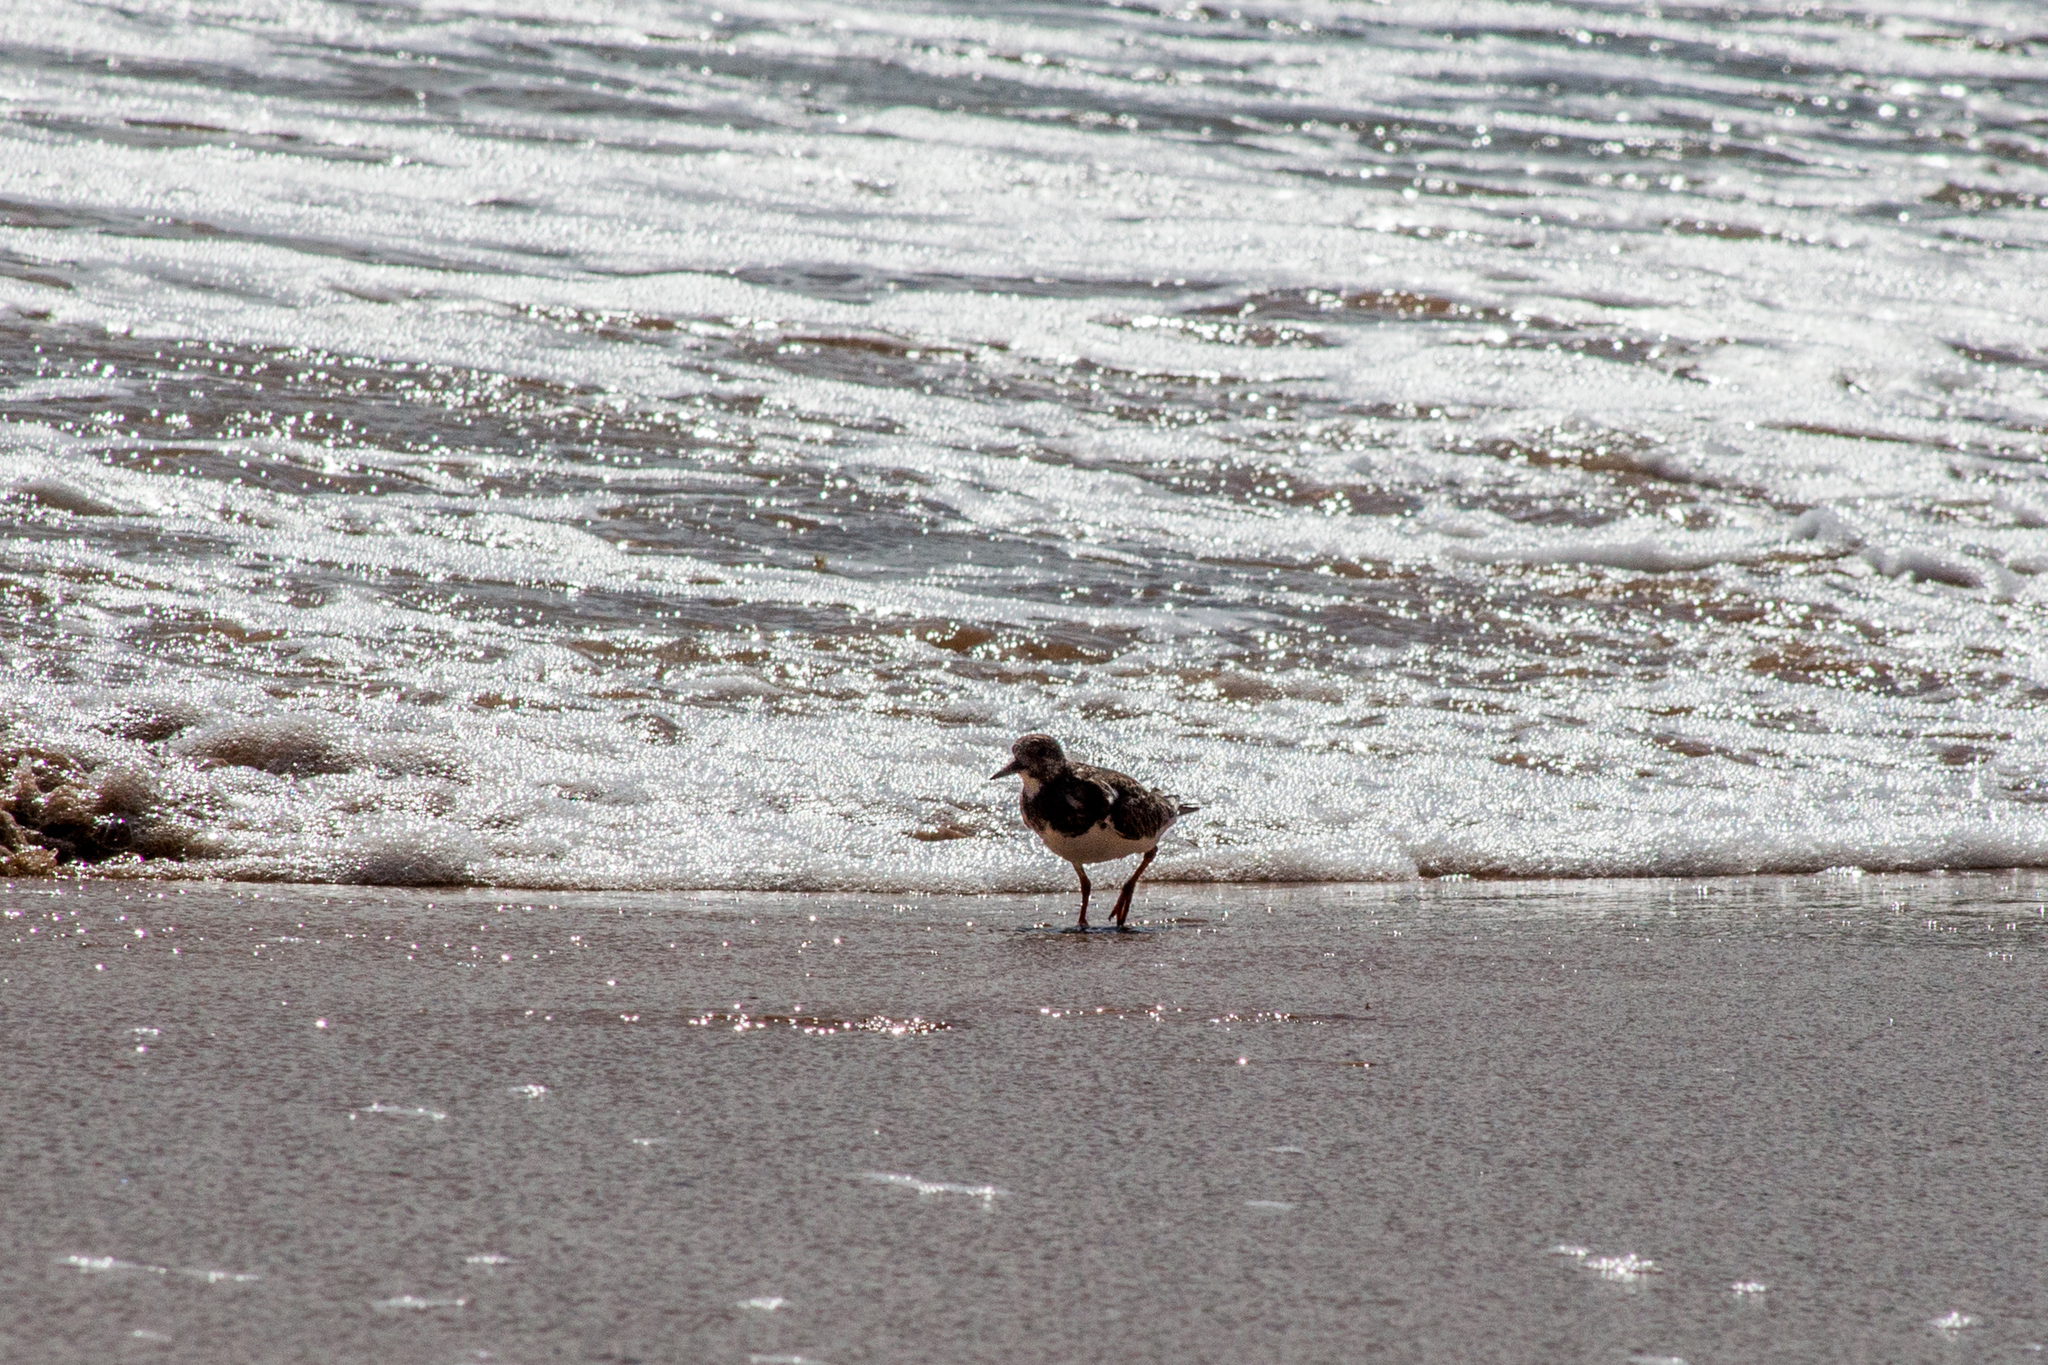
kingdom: Animalia
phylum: Chordata
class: Aves
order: Charadriiformes
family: Scolopacidae
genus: Arenaria
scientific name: Arenaria interpres
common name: Ruddy turnstone
